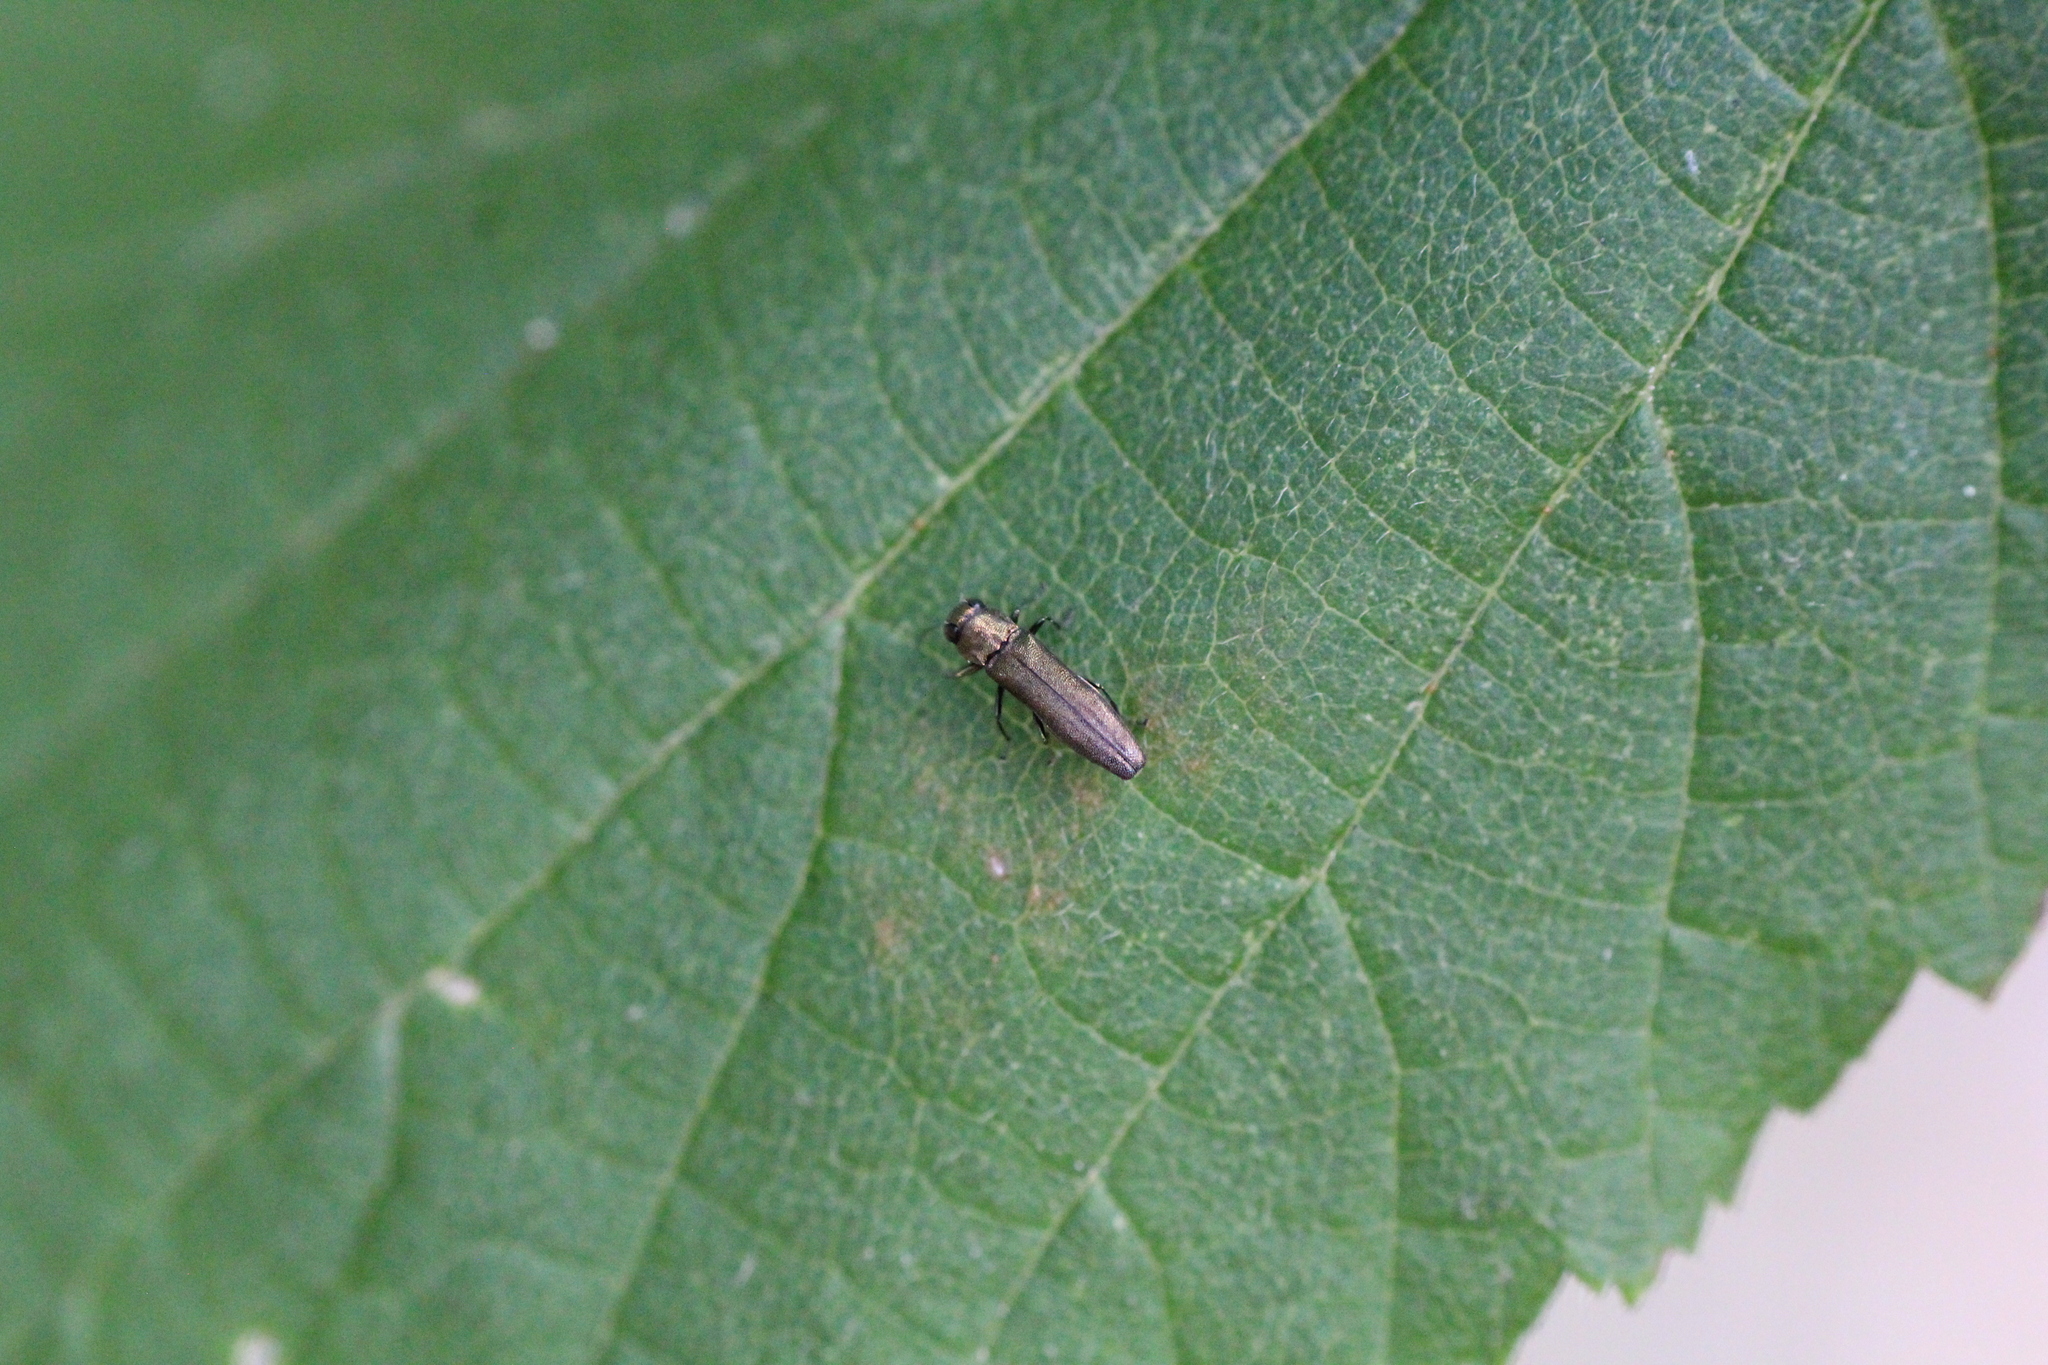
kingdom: Animalia
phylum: Arthropoda
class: Insecta
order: Coleoptera
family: Buprestidae
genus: Agrilus
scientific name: Agrilus olivicolor
